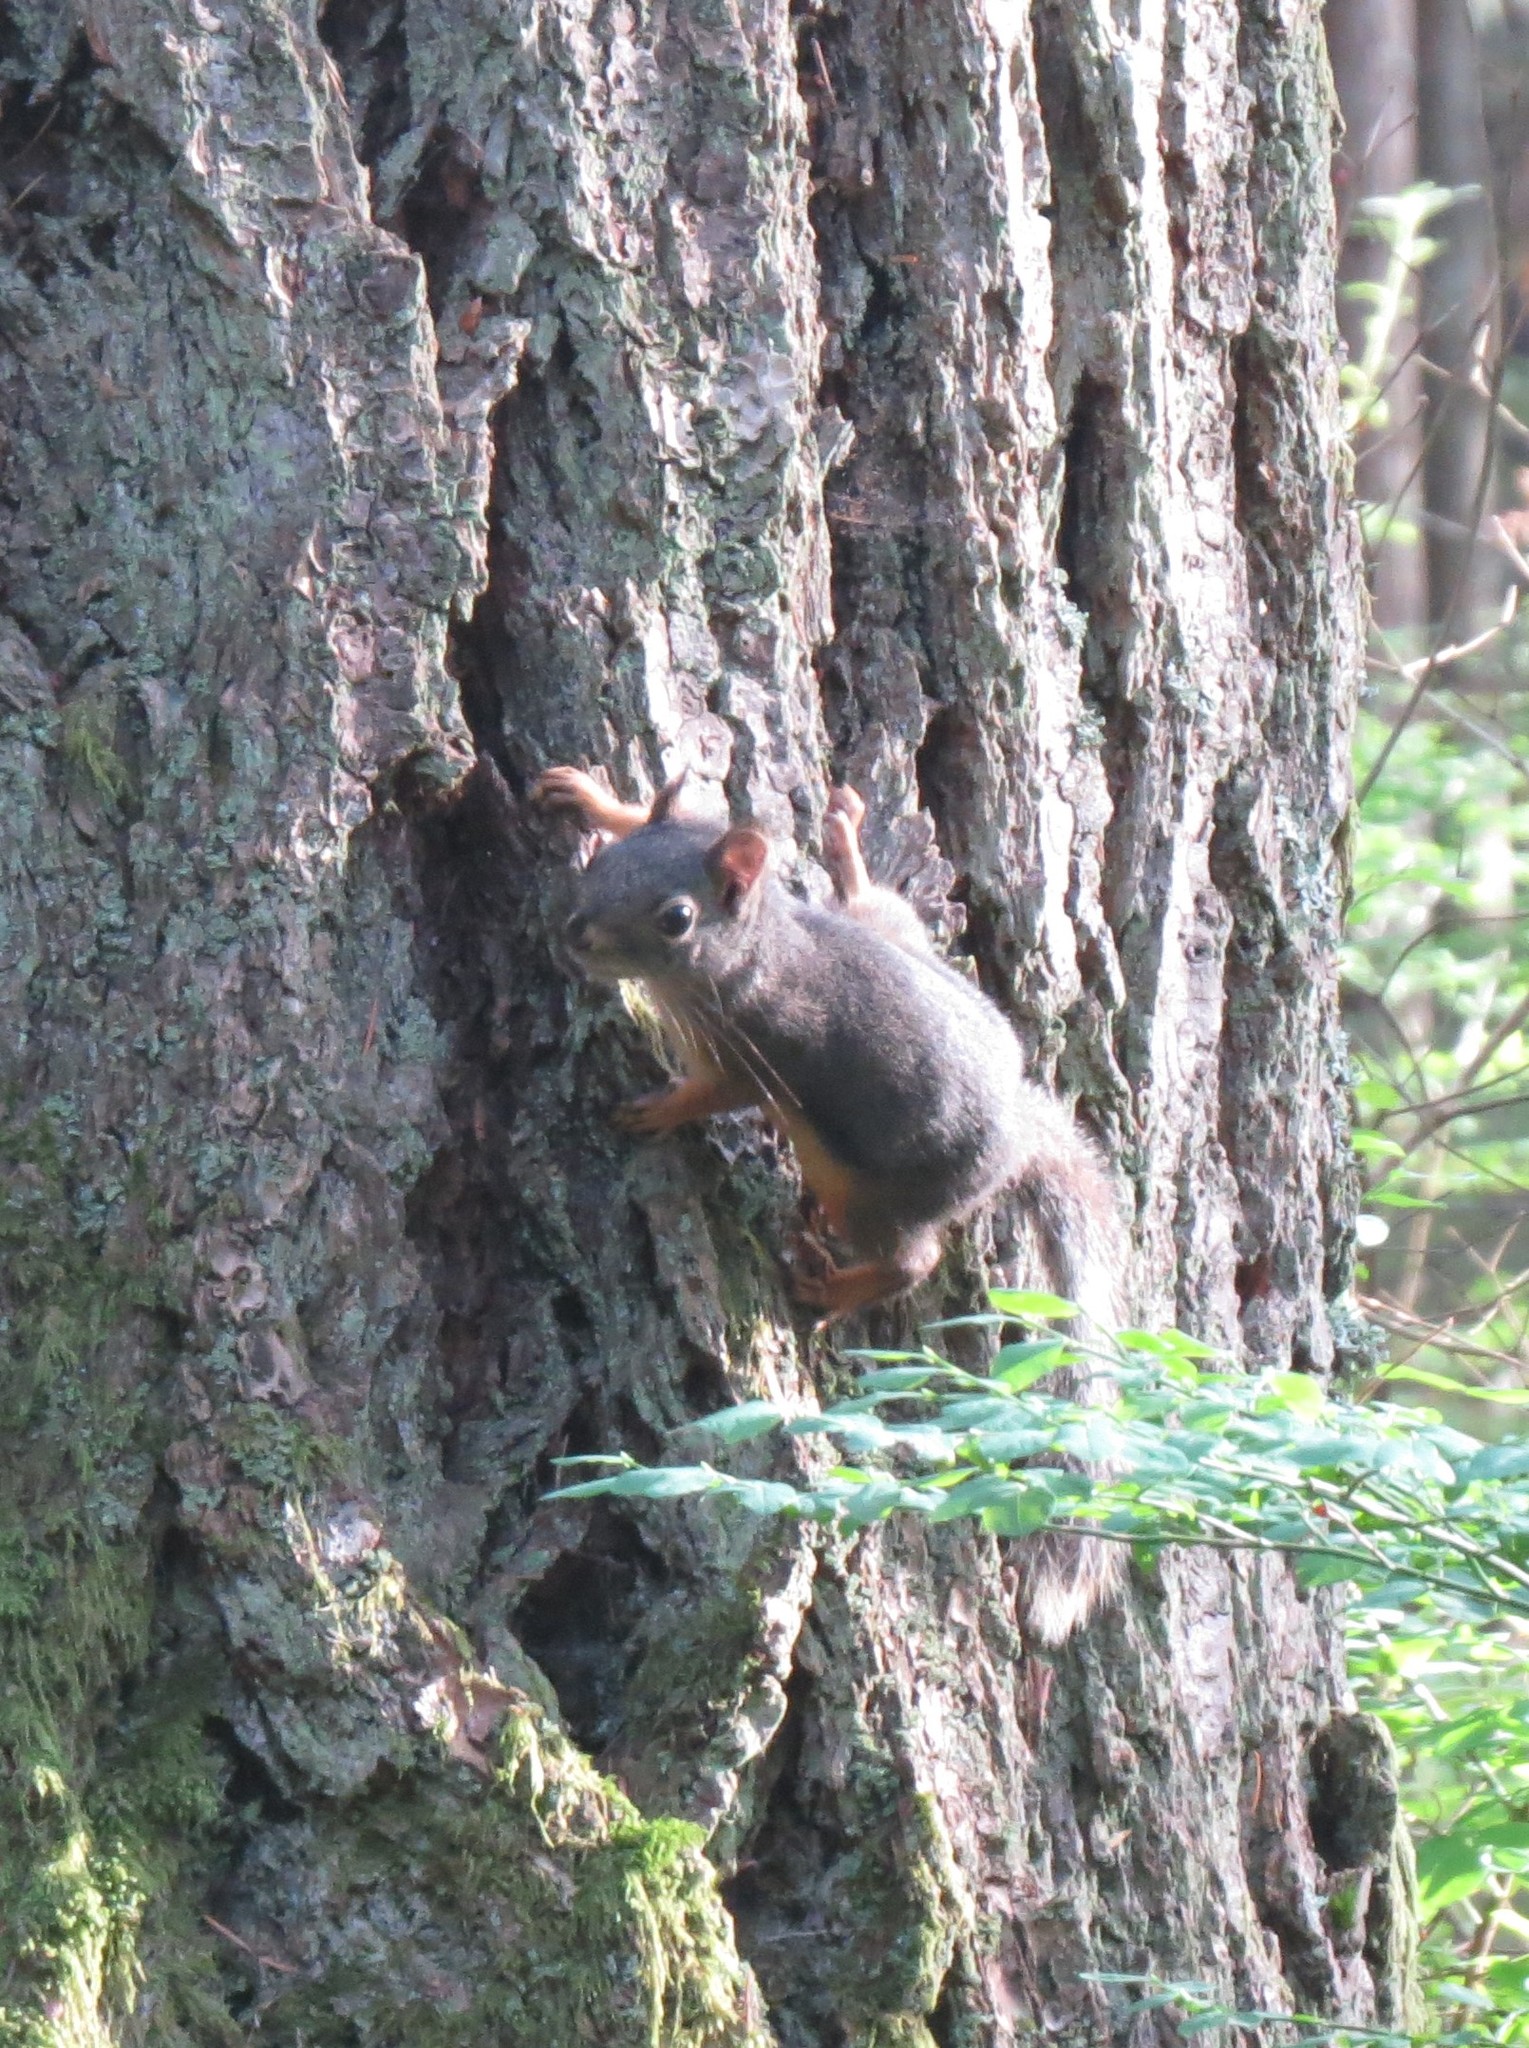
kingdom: Animalia
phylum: Chordata
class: Mammalia
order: Rodentia
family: Sciuridae
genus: Tamiasciurus
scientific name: Tamiasciurus douglasii
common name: Douglas's squirrel
